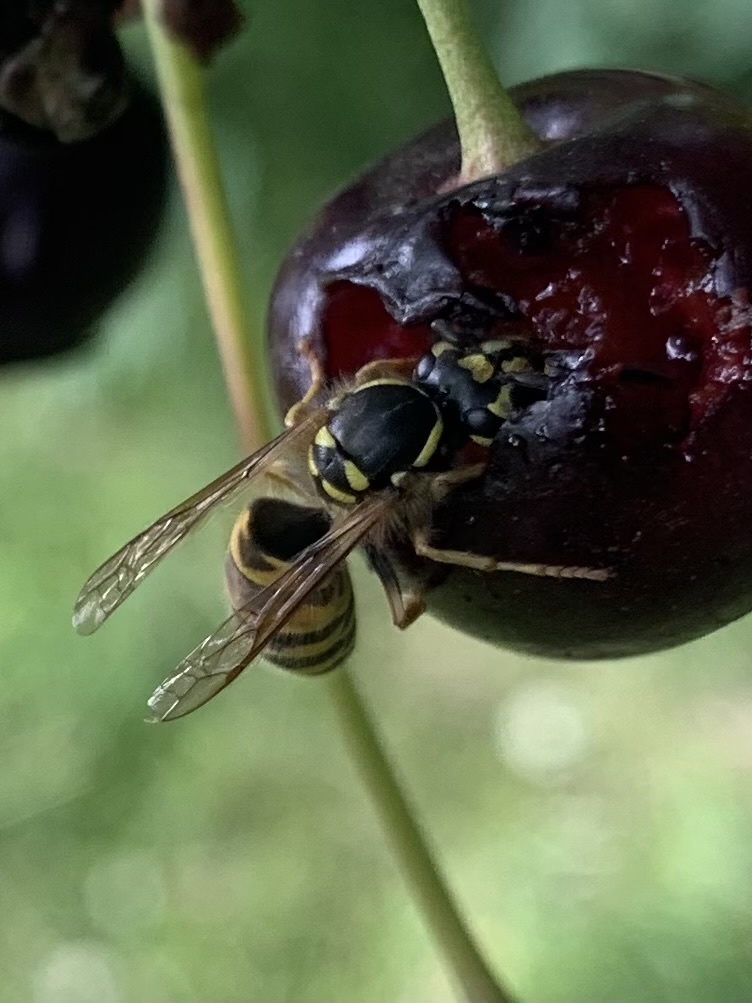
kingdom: Animalia
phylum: Arthropoda
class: Insecta
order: Hymenoptera
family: Vespidae
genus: Vespula
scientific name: Vespula vulgaris
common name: Common wasp
